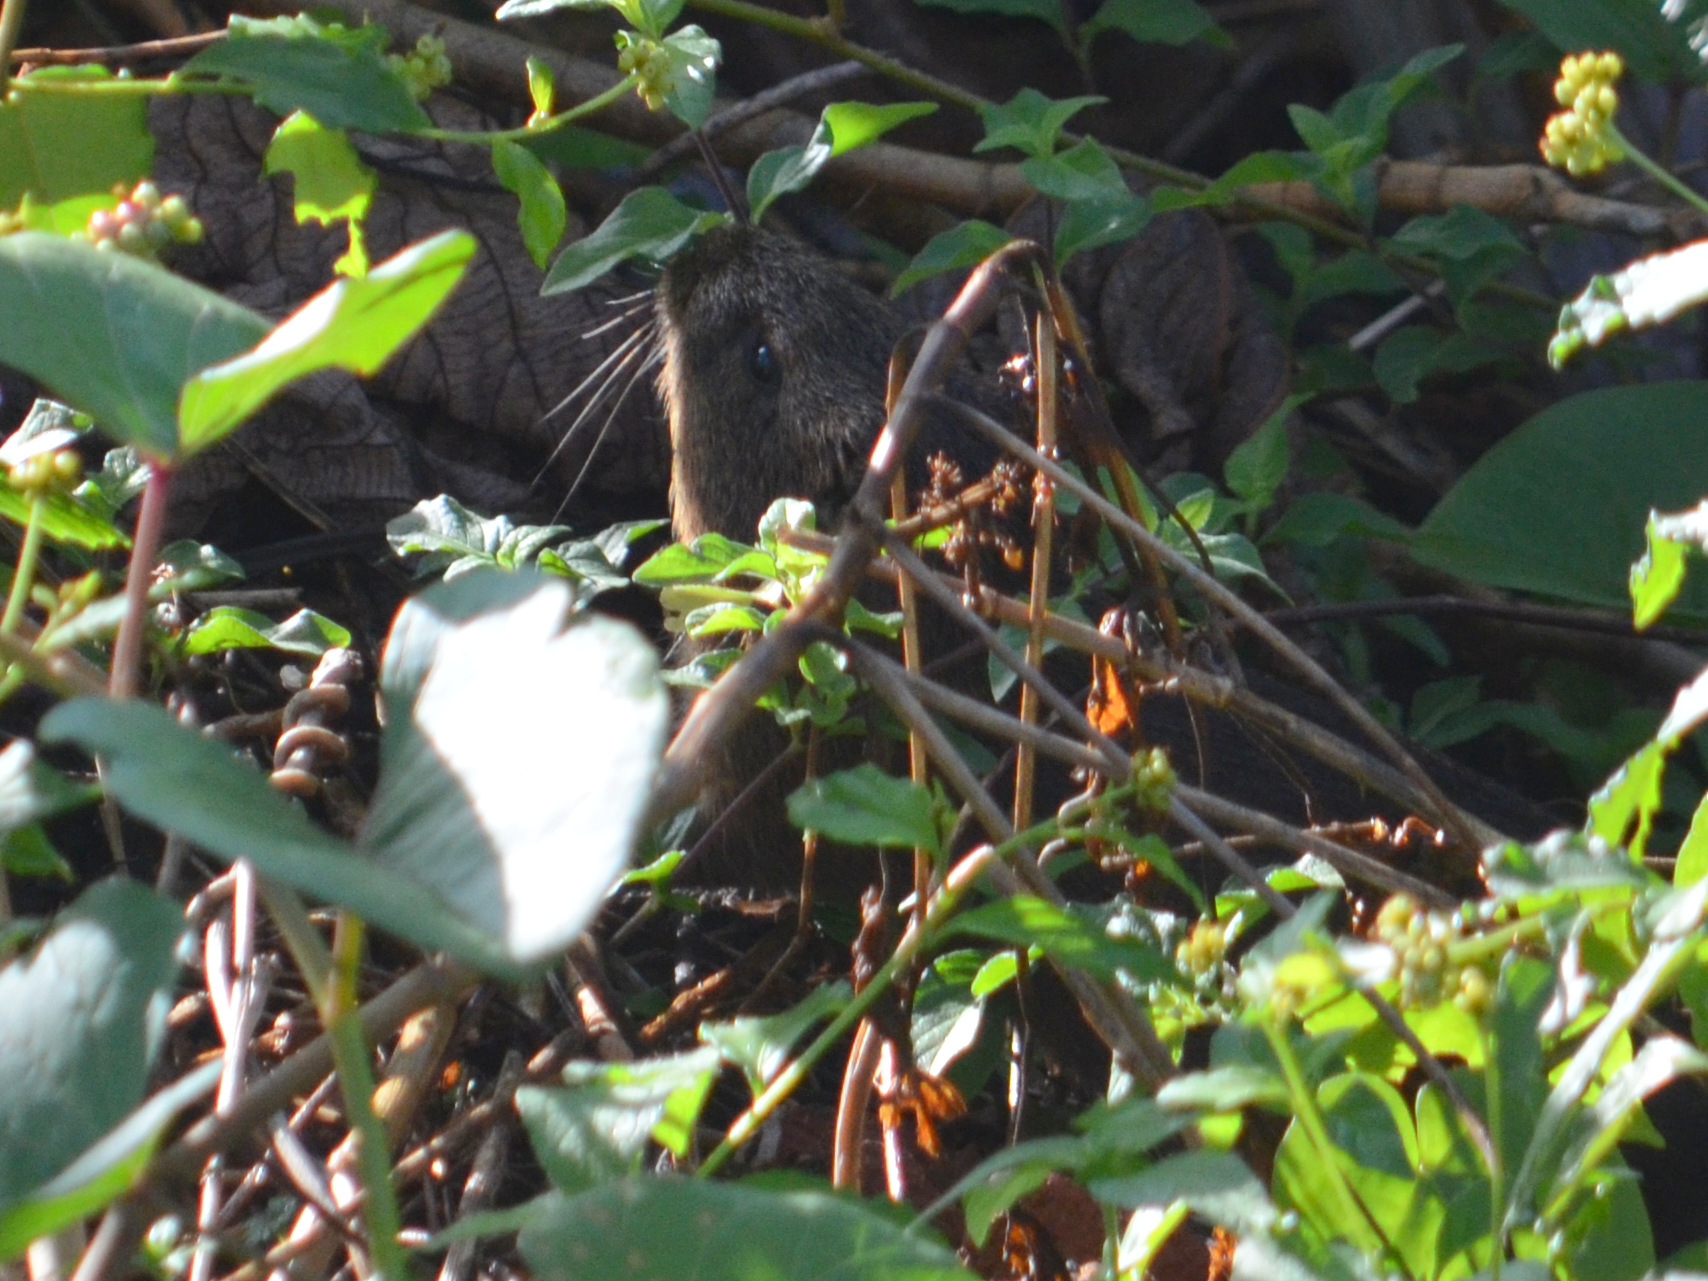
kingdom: Animalia
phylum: Chordata
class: Mammalia
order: Rodentia
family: Caviidae
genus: Cavia
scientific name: Cavia aperea
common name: Brazilian guinea pig
